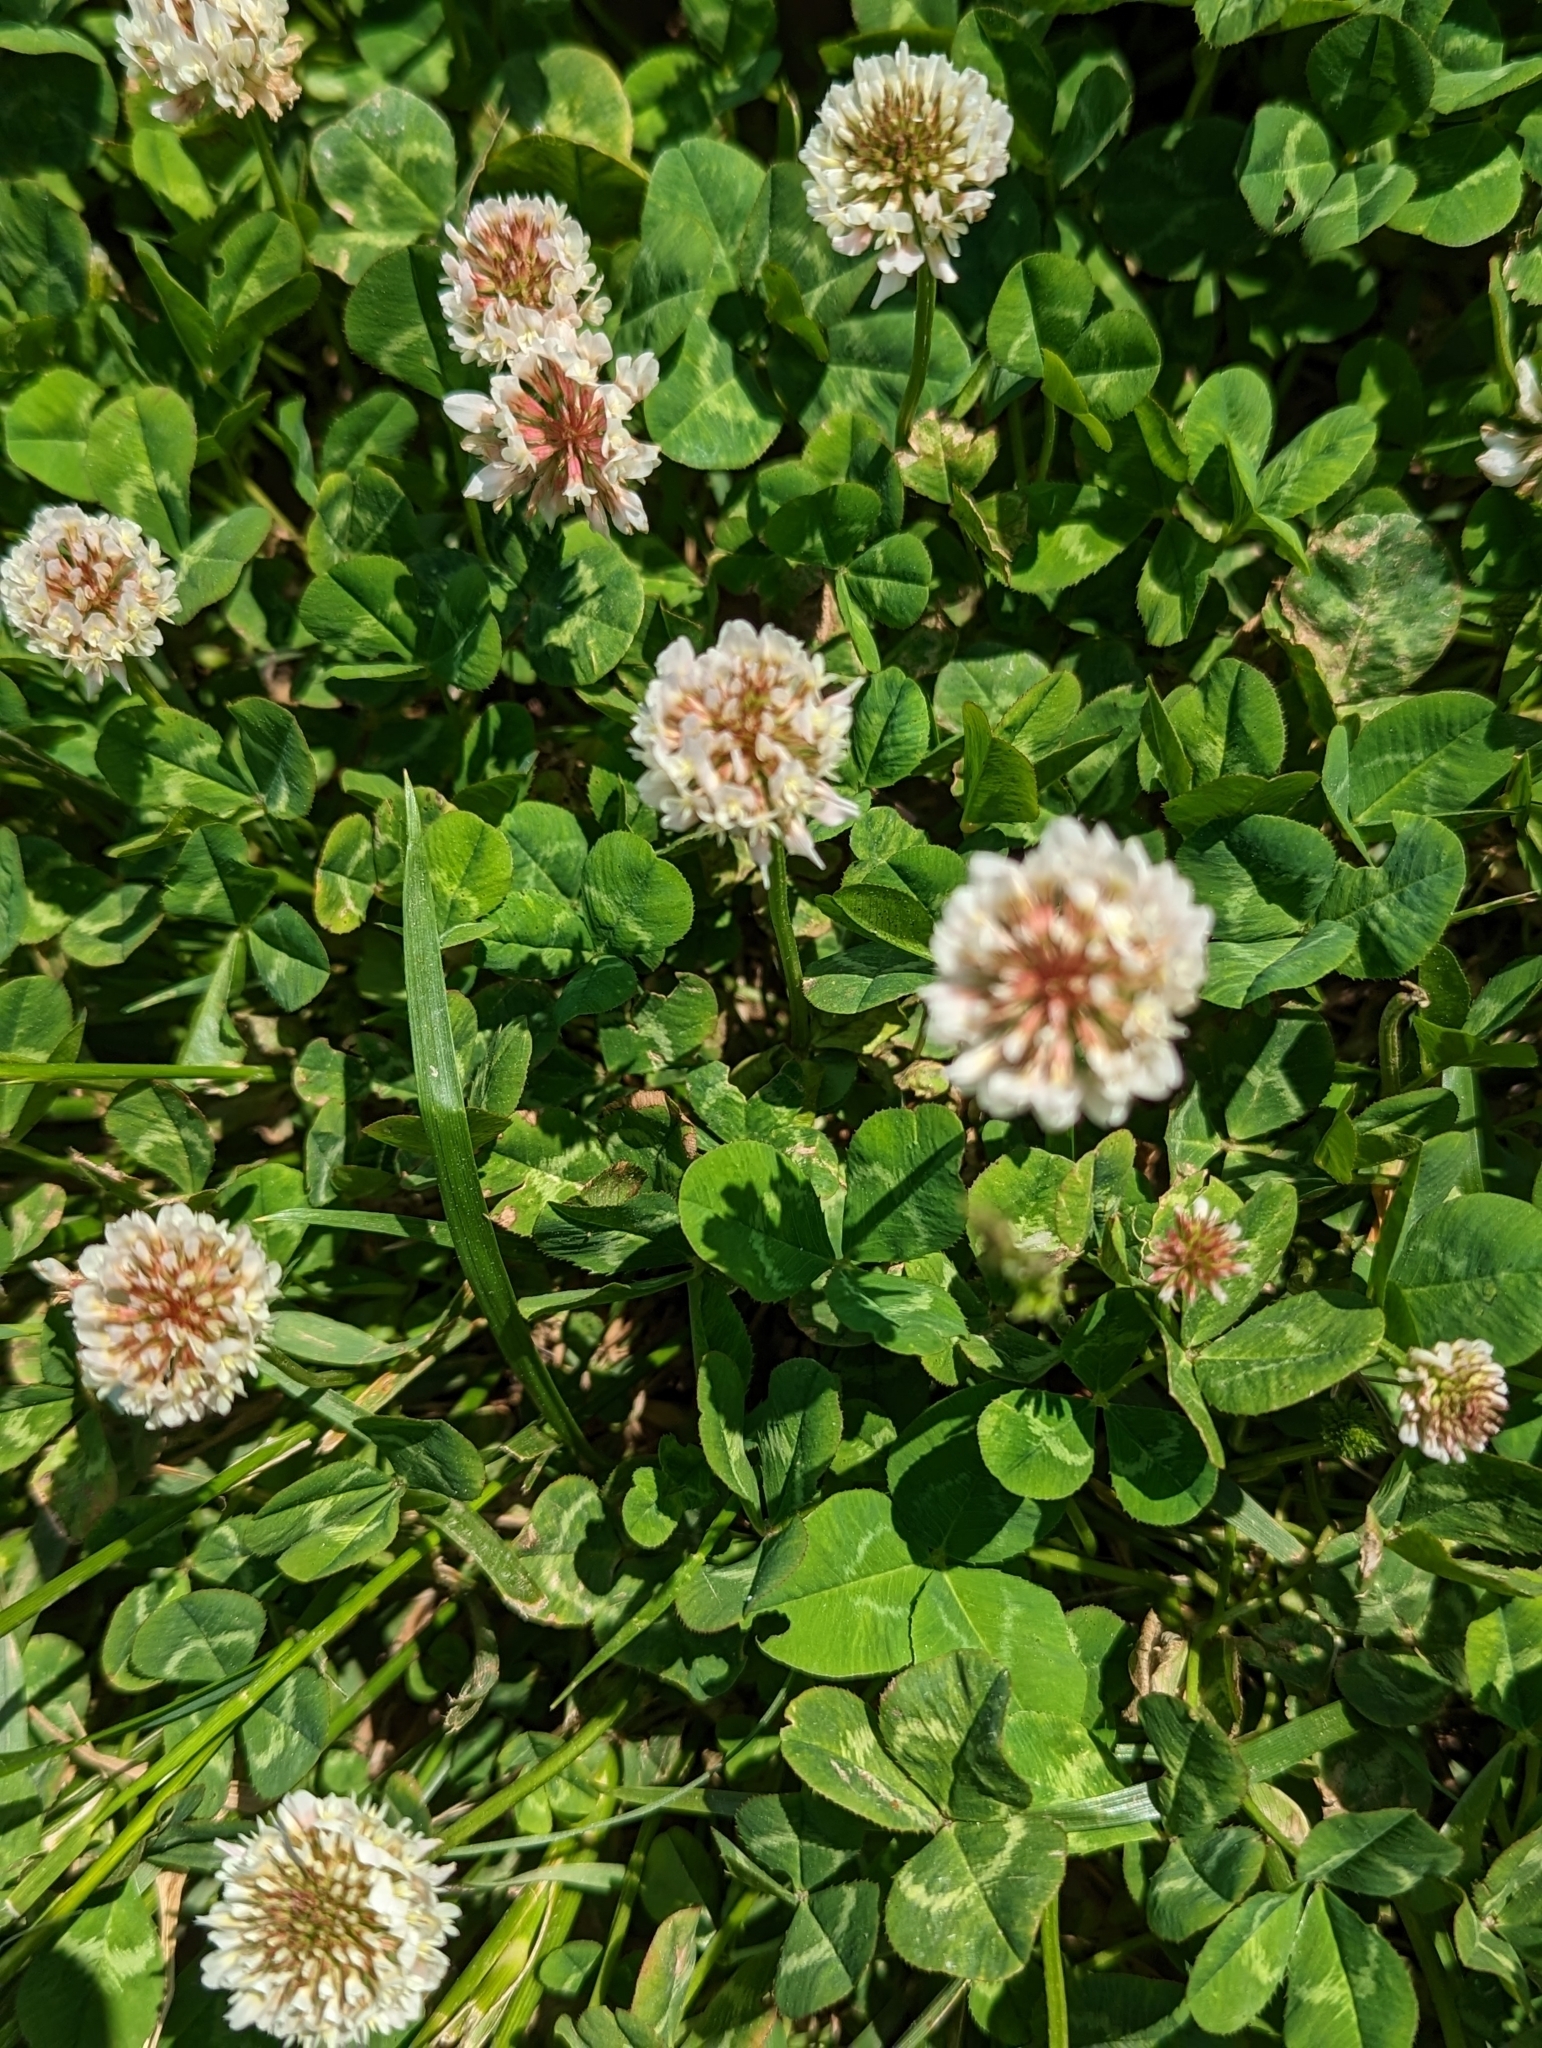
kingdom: Plantae
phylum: Tracheophyta
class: Magnoliopsida
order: Fabales
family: Fabaceae
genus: Trifolium
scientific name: Trifolium repens
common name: White clover
